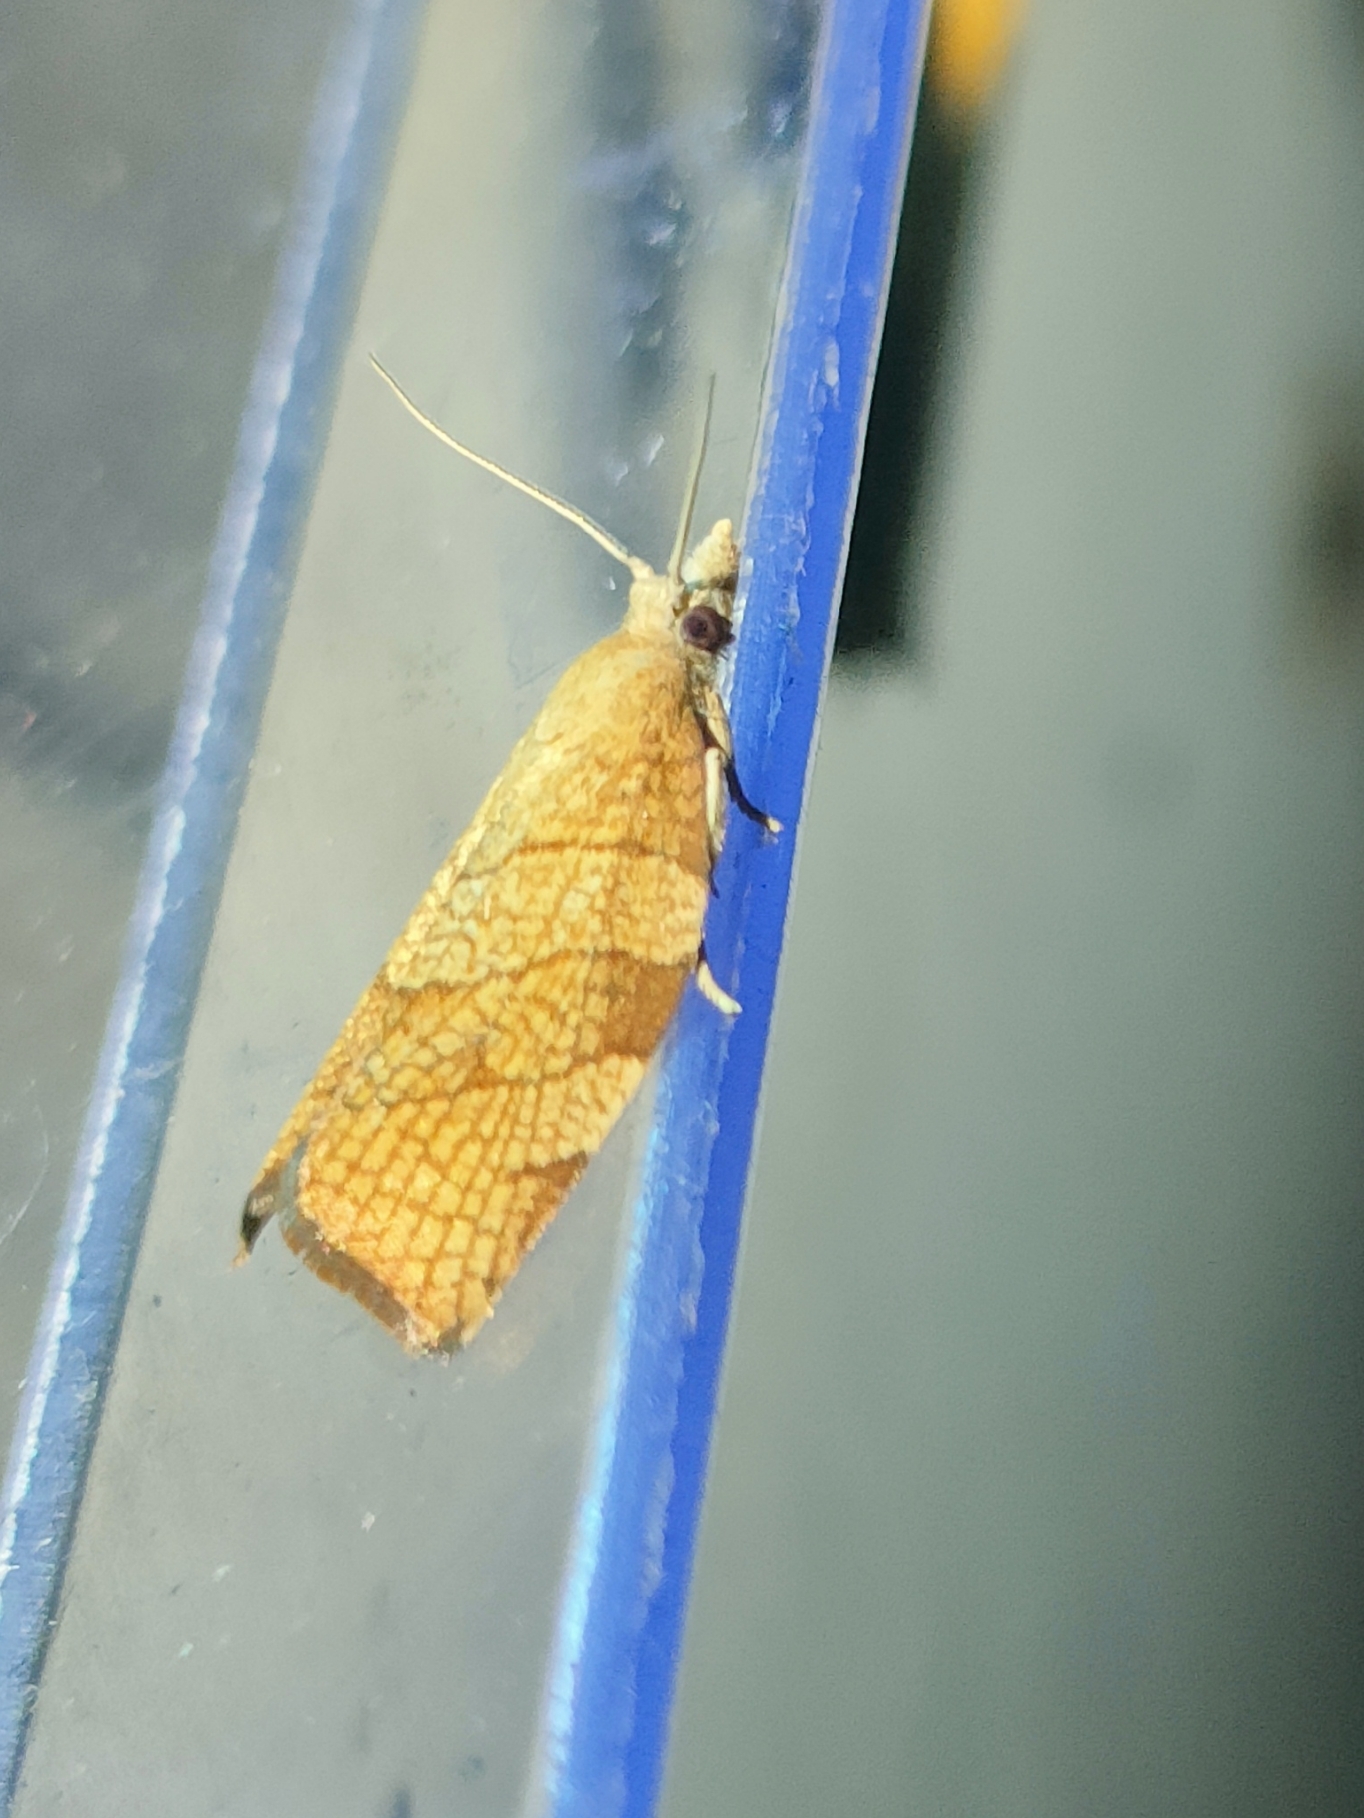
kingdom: Animalia
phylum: Arthropoda
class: Insecta
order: Lepidoptera
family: Tortricidae
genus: Pandemis
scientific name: Pandemis corylana
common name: Chequered fruit-tree tortrix
